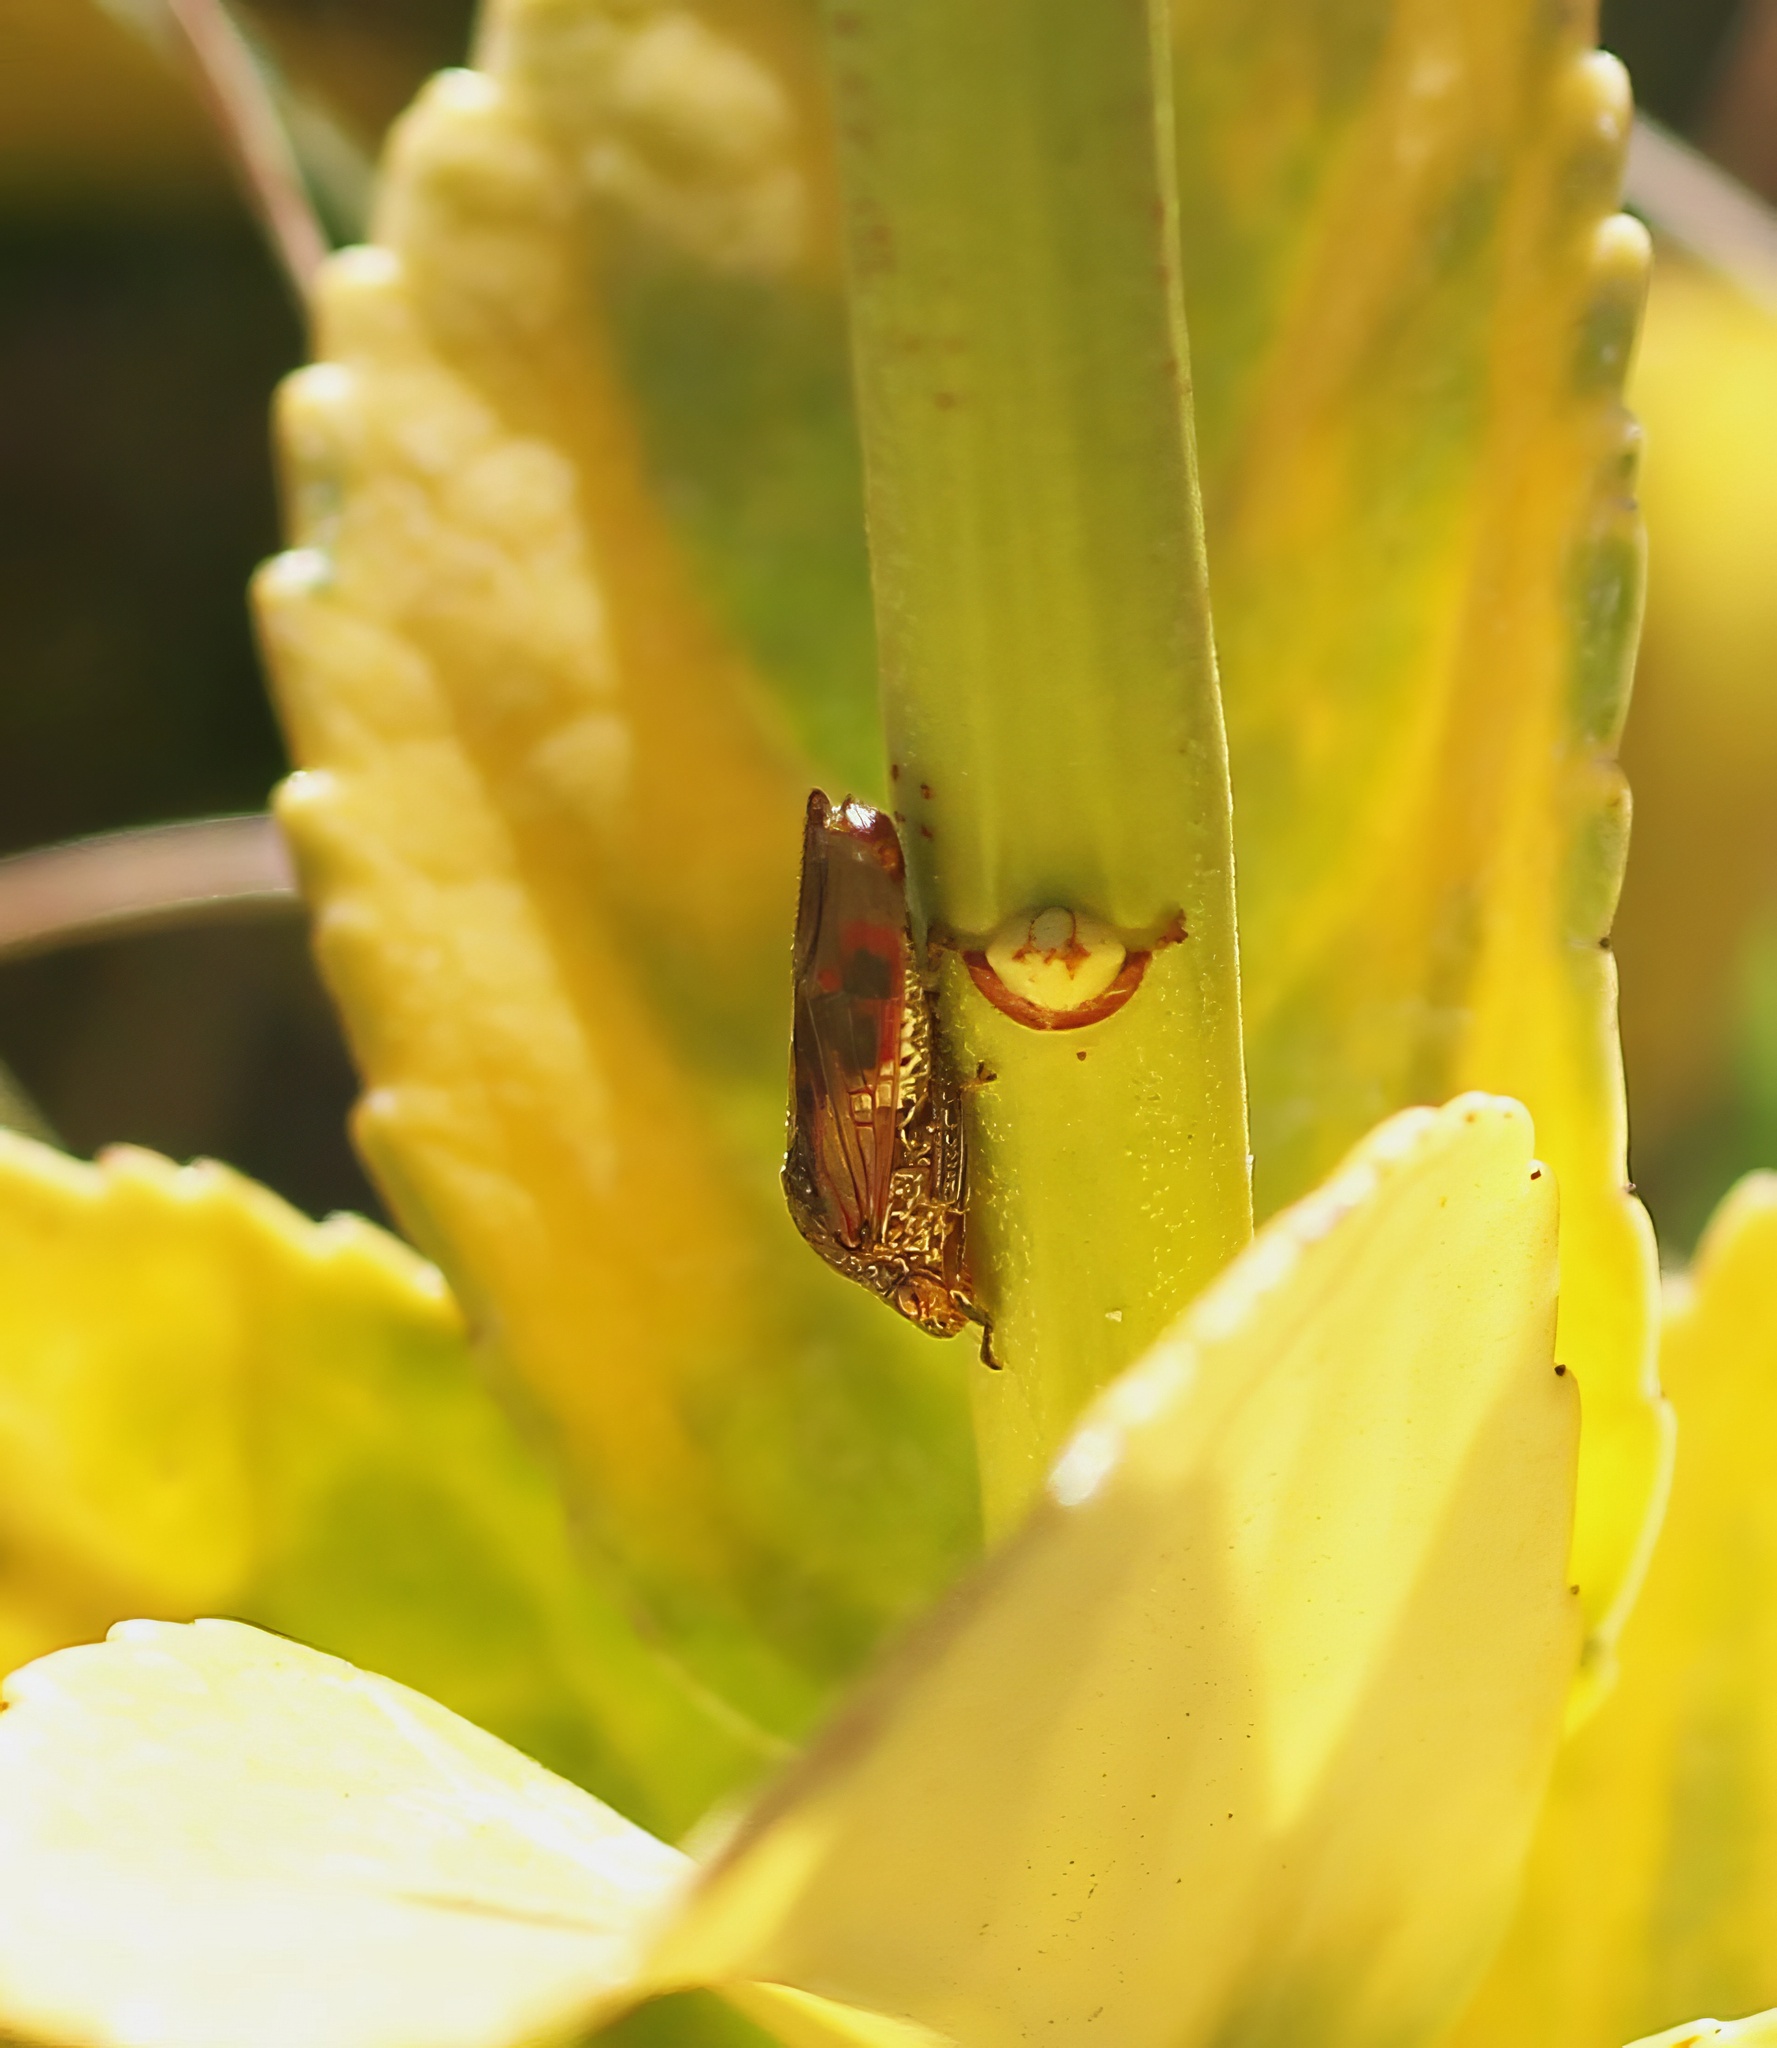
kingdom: Animalia
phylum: Arthropoda
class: Insecta
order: Hemiptera
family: Cicadellidae
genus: Homalodisca
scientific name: Homalodisca vitripennis
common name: Glassy-winged sharpshooter
